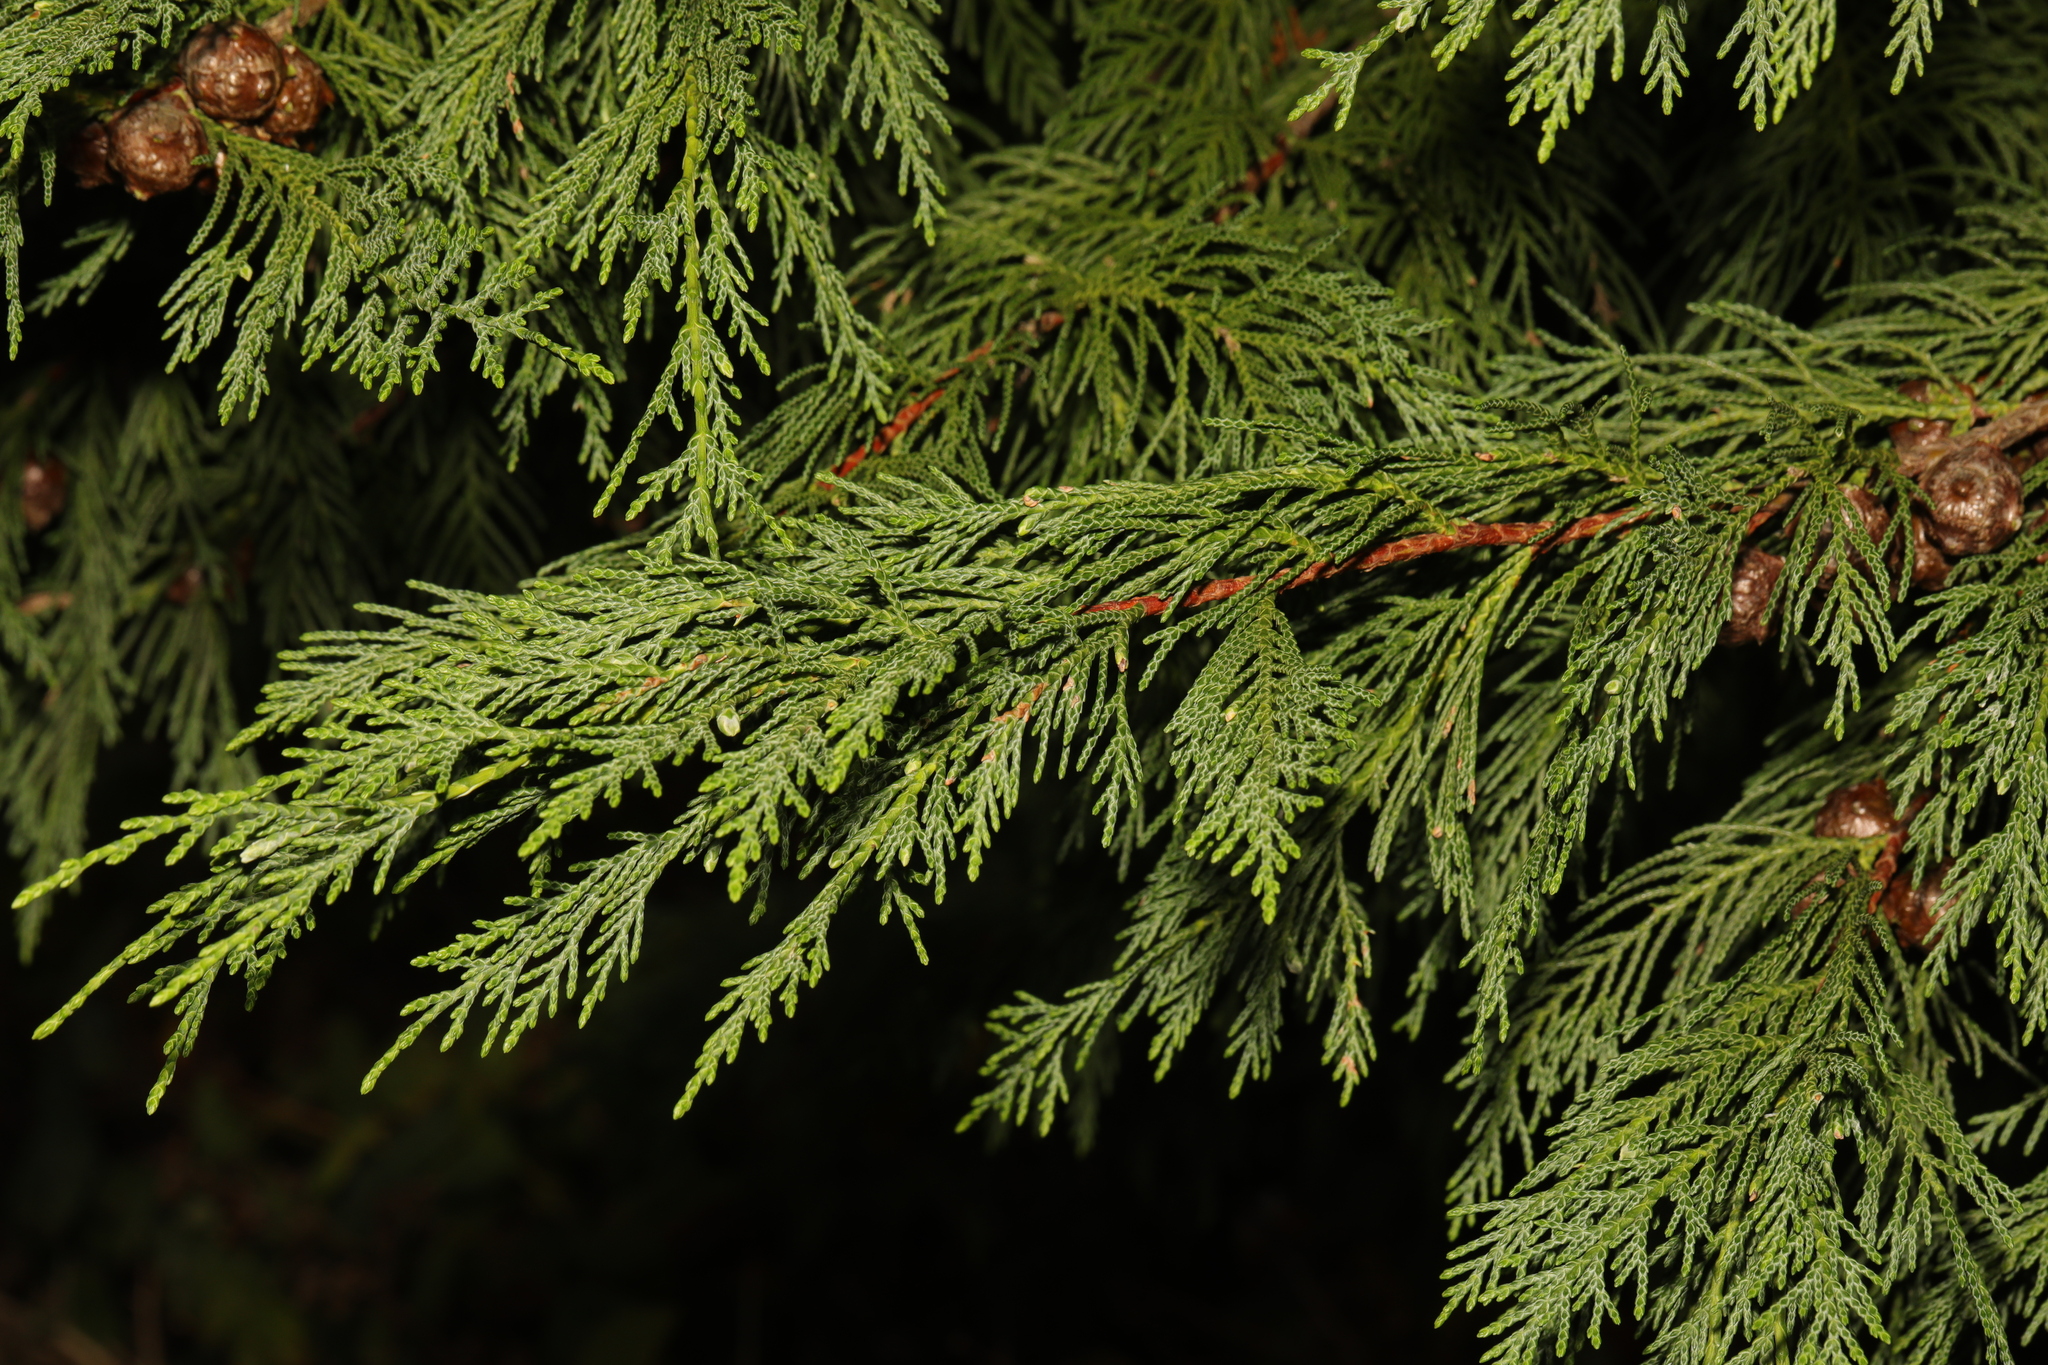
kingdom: Plantae
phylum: Tracheophyta
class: Pinopsida
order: Pinales
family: Cupressaceae
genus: Chamaecyparis
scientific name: Chamaecyparis lawsoniana
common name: Lawson's cypress
